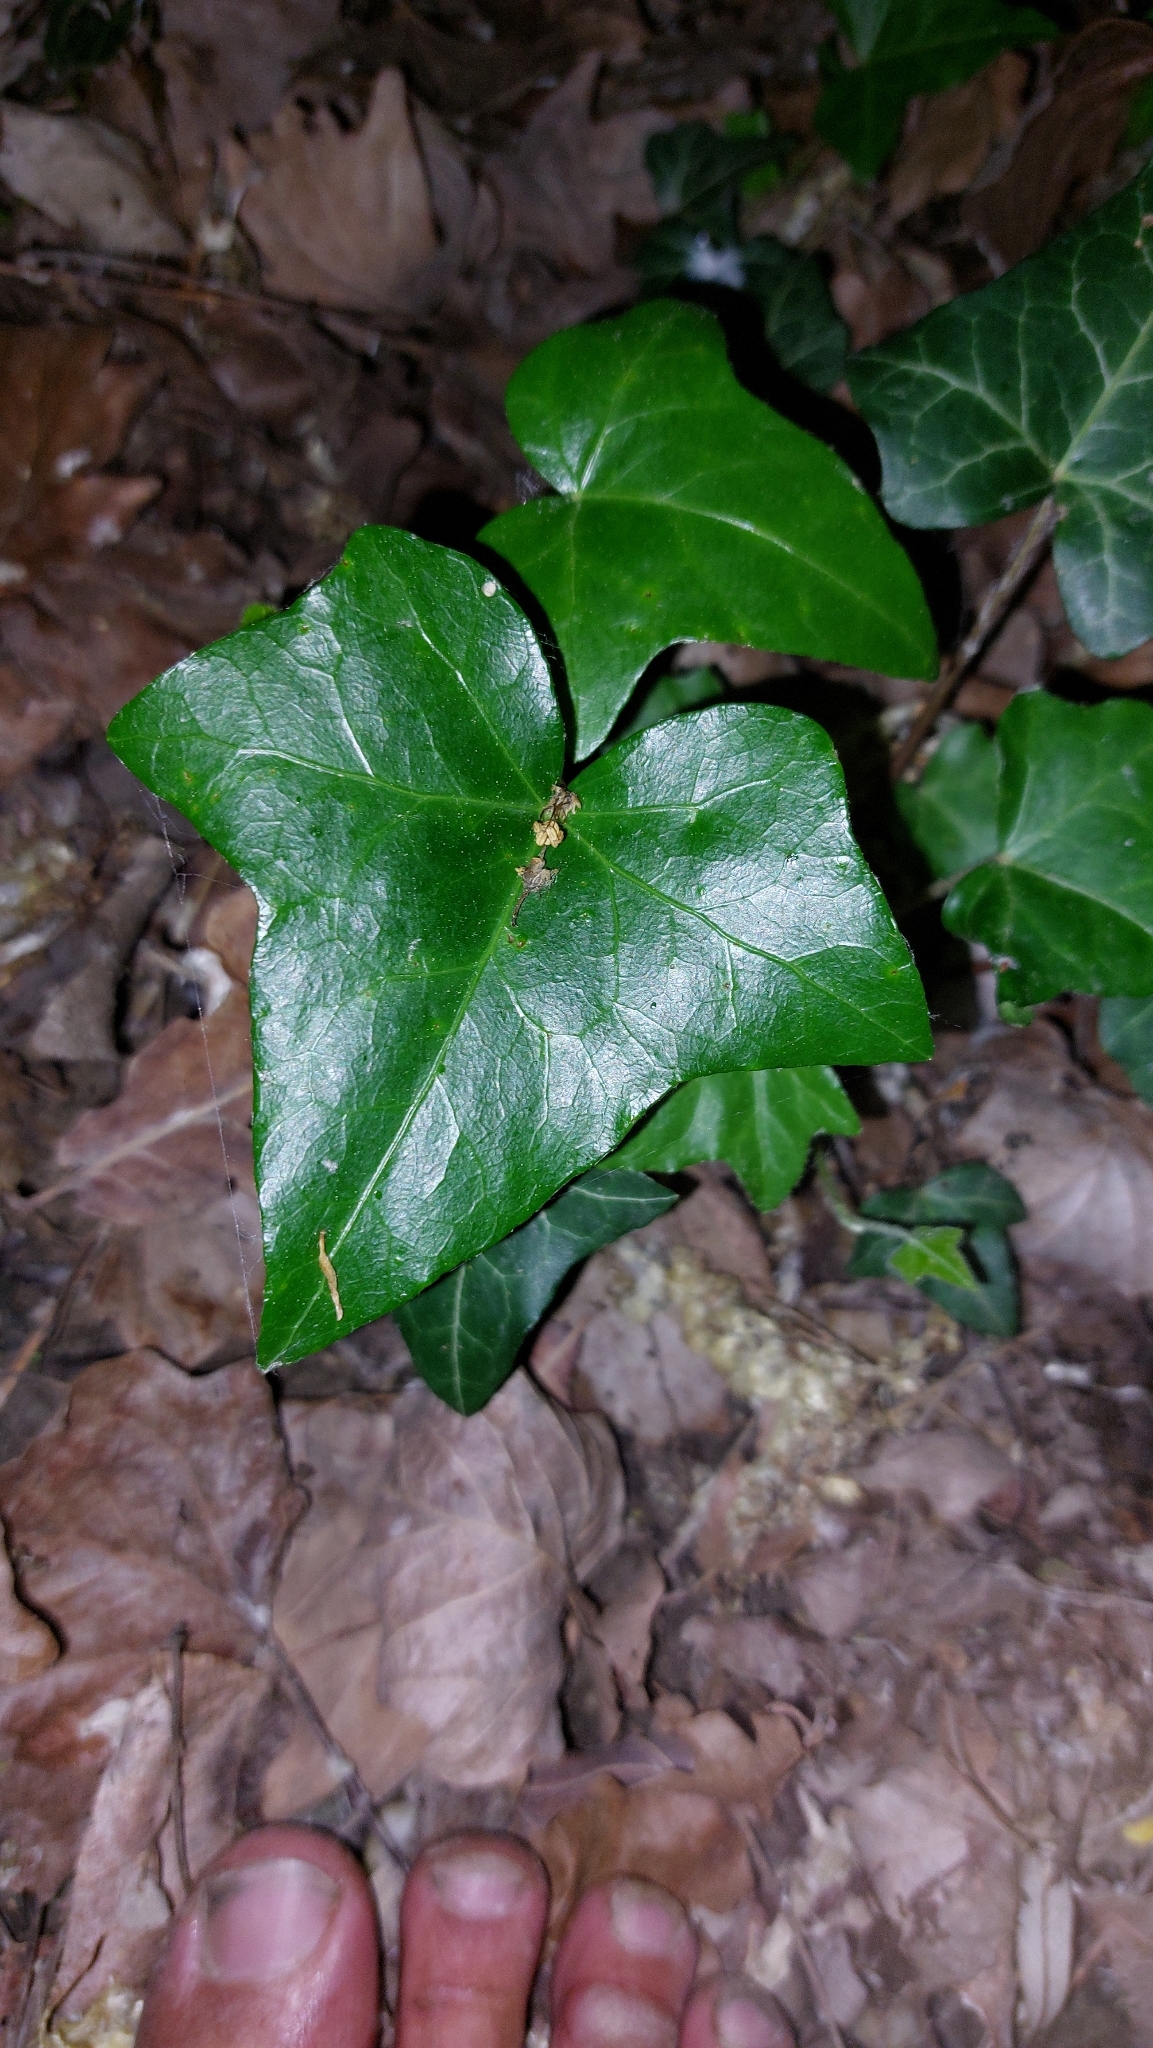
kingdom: Plantae
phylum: Tracheophyta
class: Magnoliopsida
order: Apiales
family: Araliaceae
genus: Hedera
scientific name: Hedera helix
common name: Ivy
